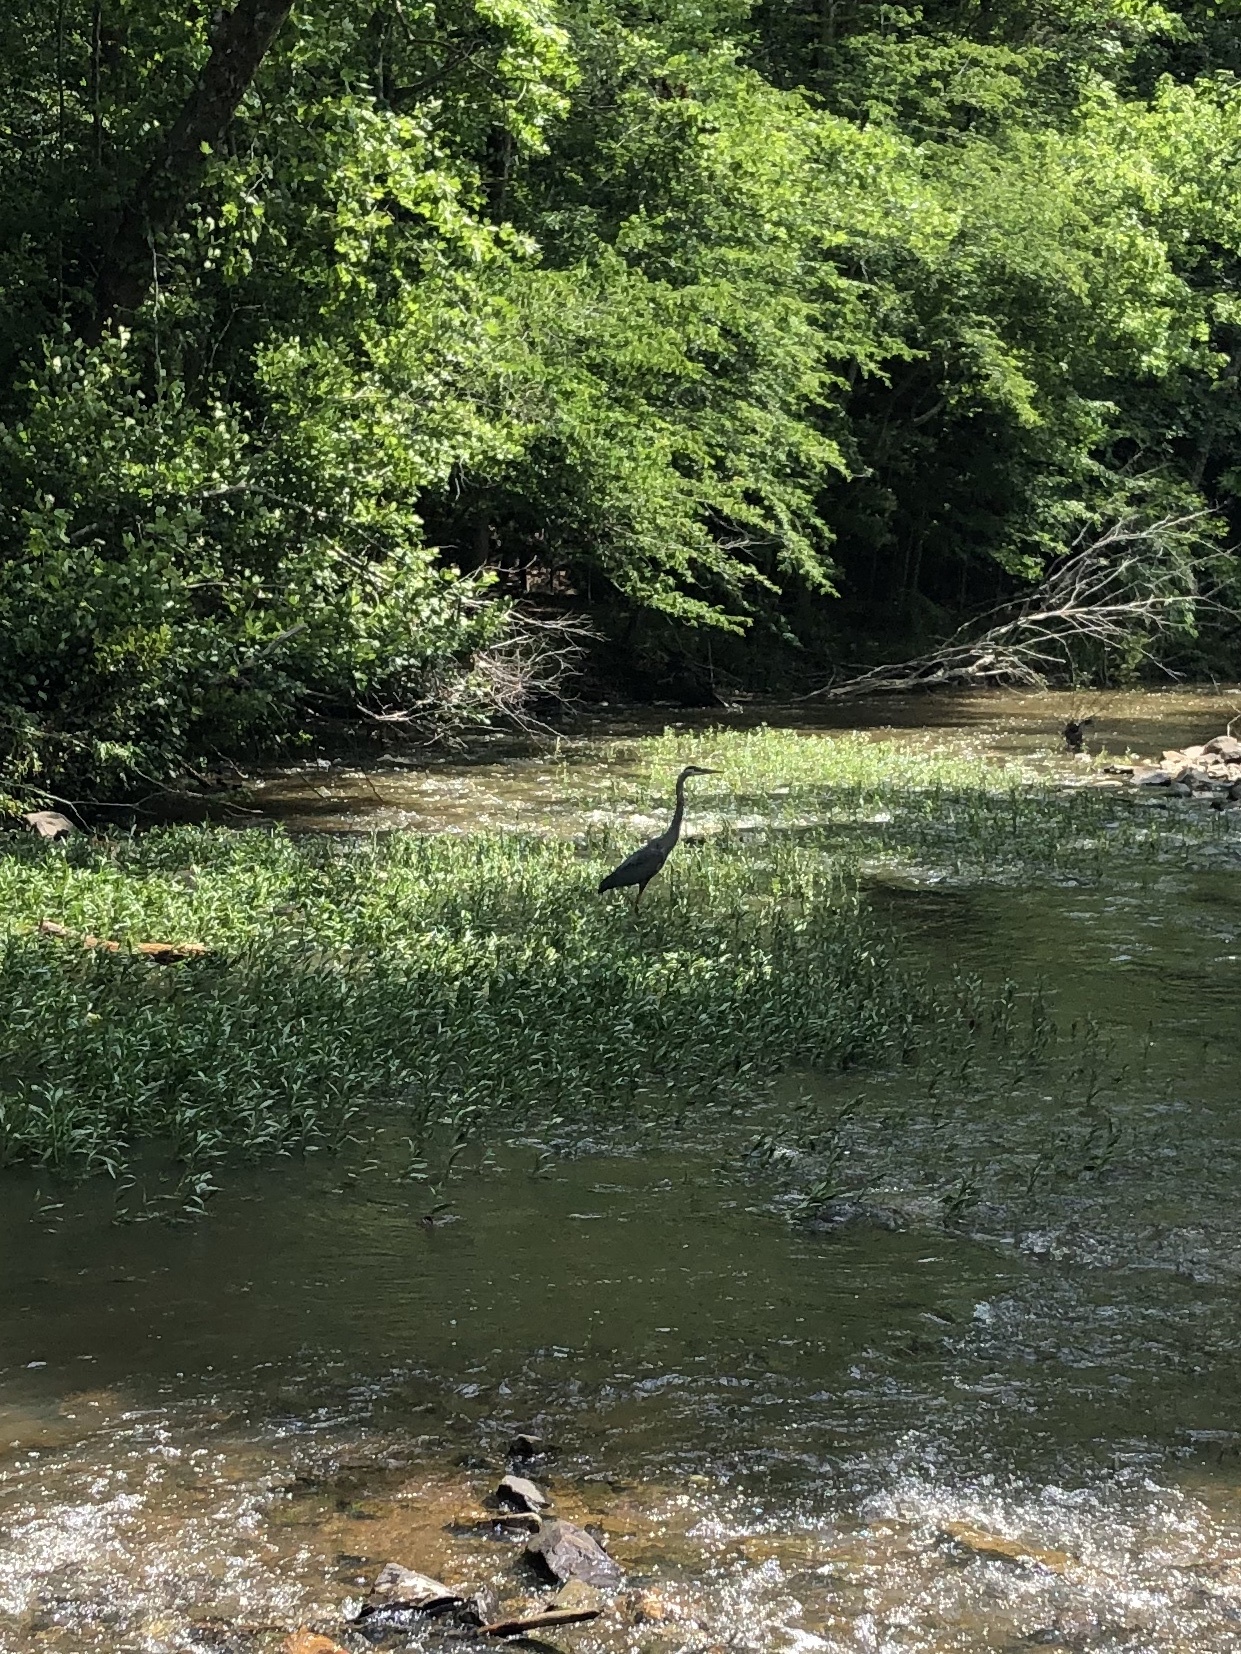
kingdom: Animalia
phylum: Chordata
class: Aves
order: Pelecaniformes
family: Ardeidae
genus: Ardea
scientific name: Ardea herodias
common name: Great blue heron
